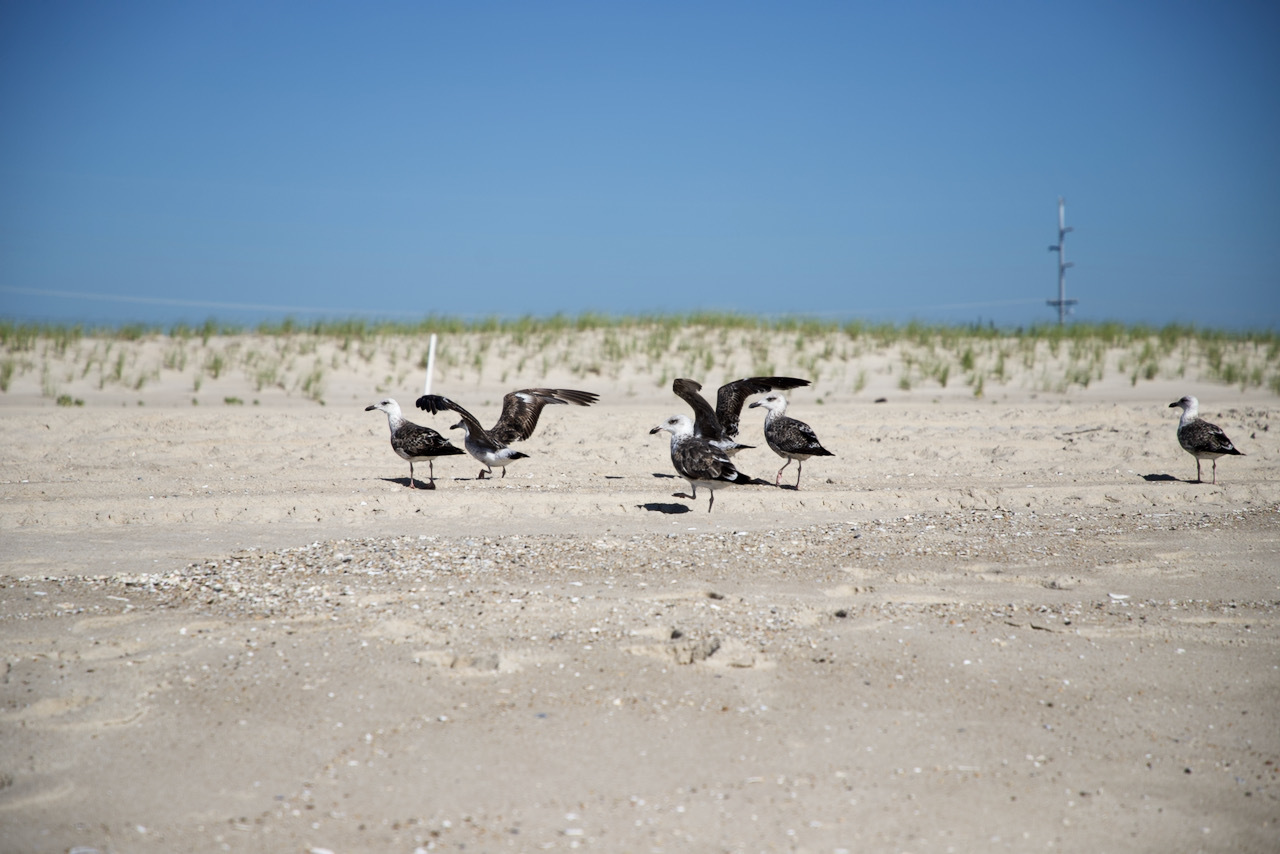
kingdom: Animalia
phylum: Chordata
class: Aves
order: Charadriiformes
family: Laridae
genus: Larus
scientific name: Larus marinus
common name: Great black-backed gull
